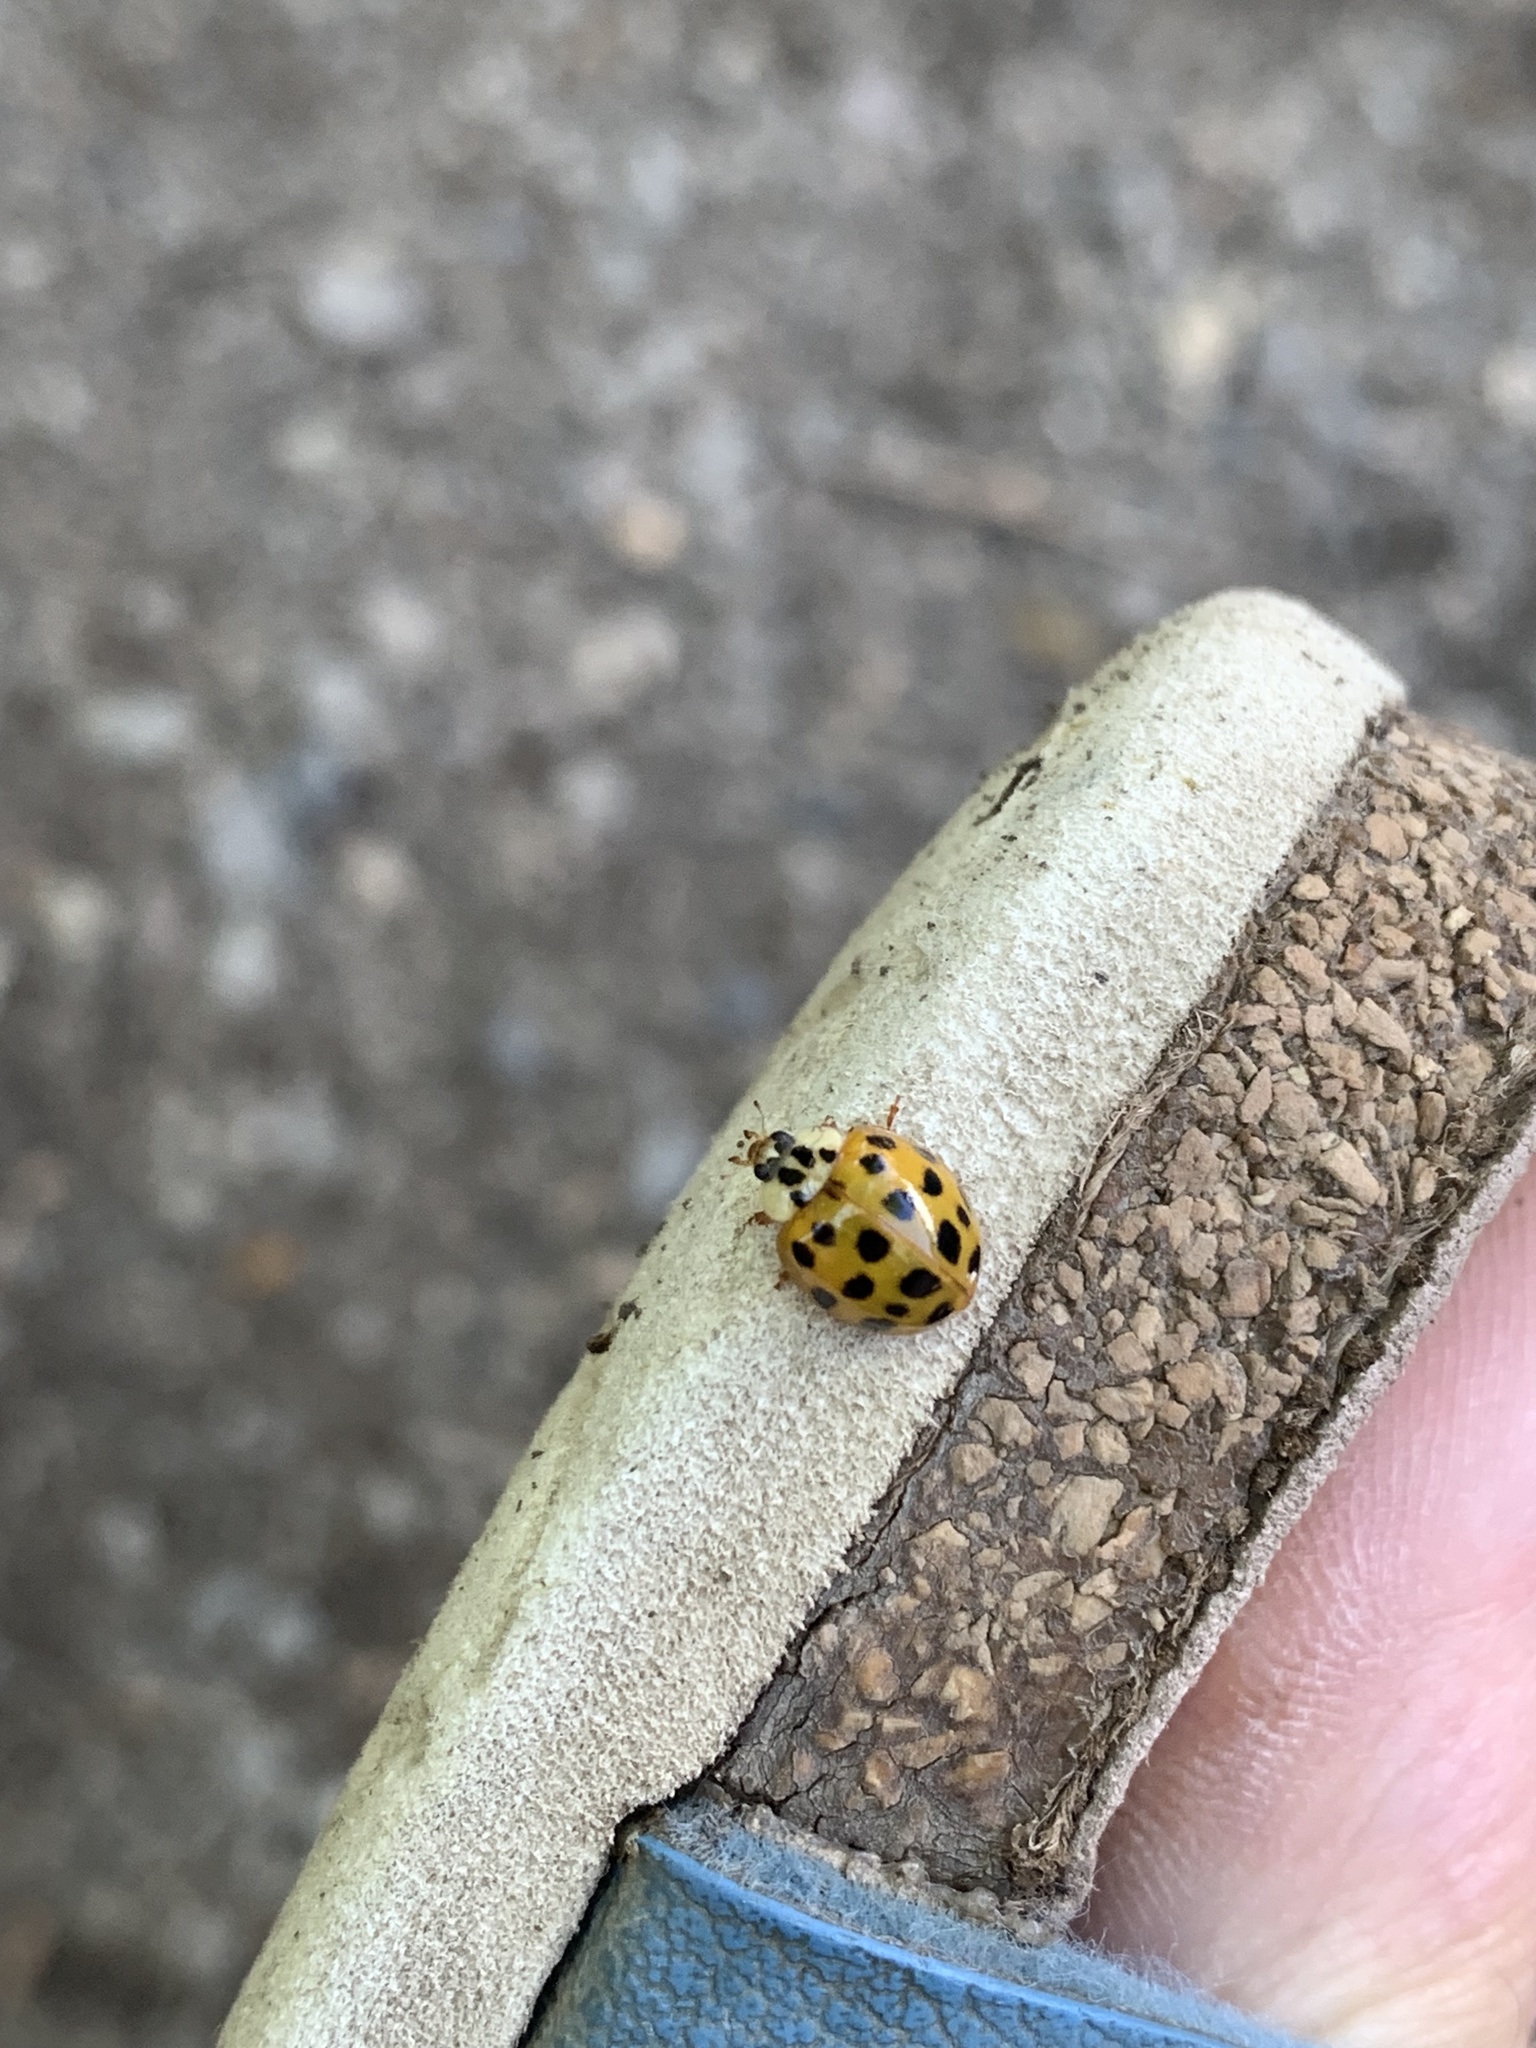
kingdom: Animalia
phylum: Arthropoda
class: Insecta
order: Coleoptera
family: Coccinellidae
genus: Harmonia
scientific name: Harmonia axyridis
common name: Harlequin ladybird
